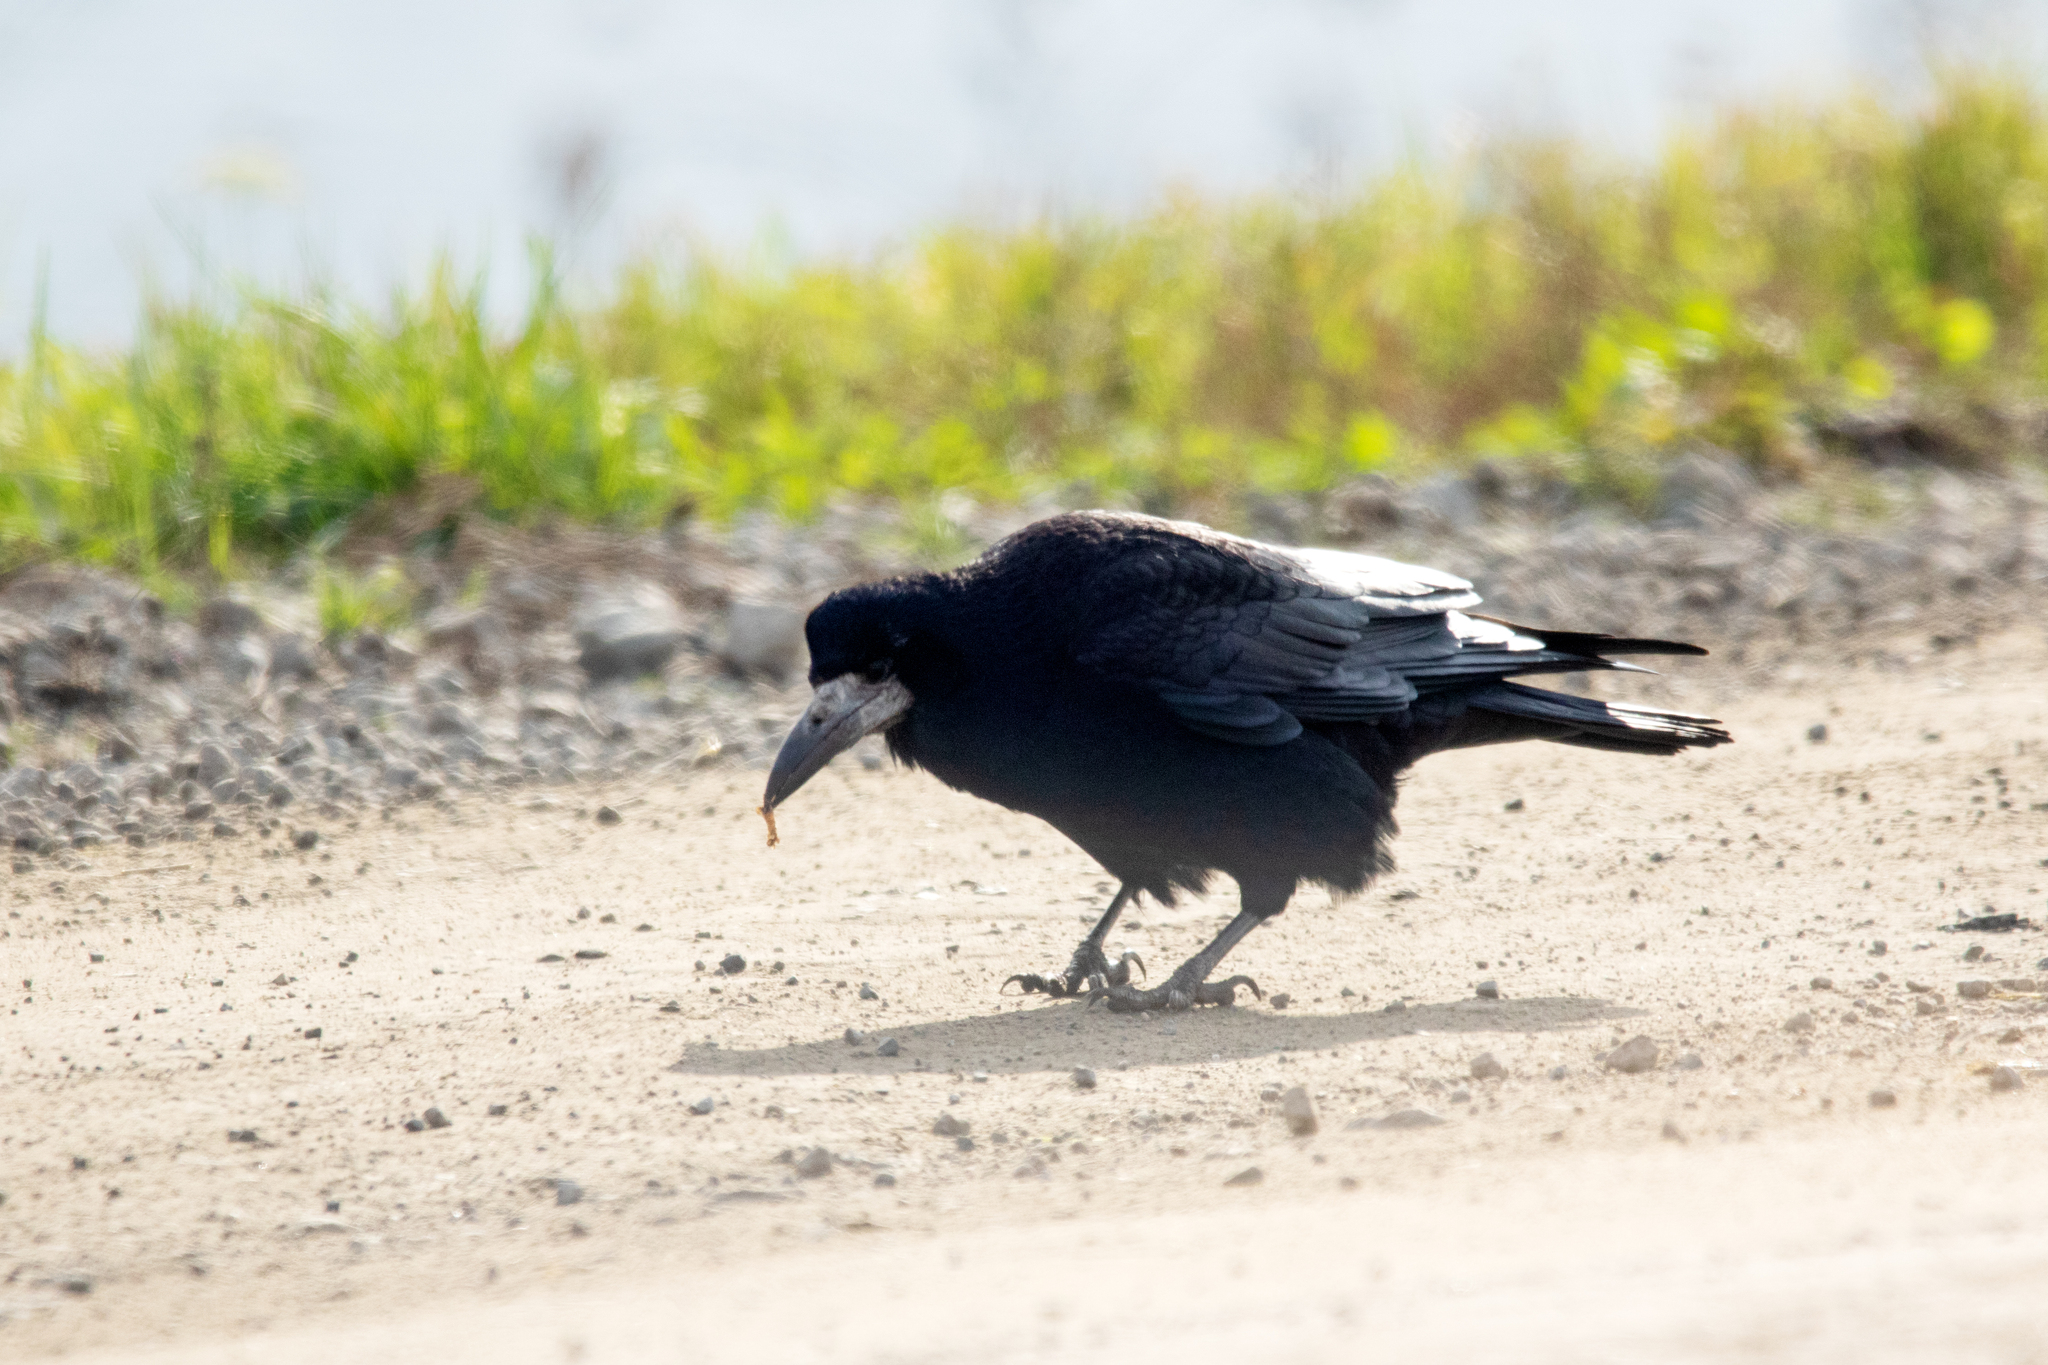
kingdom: Animalia
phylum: Chordata
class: Aves
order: Passeriformes
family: Corvidae
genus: Corvus
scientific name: Corvus frugilegus
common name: Rook
